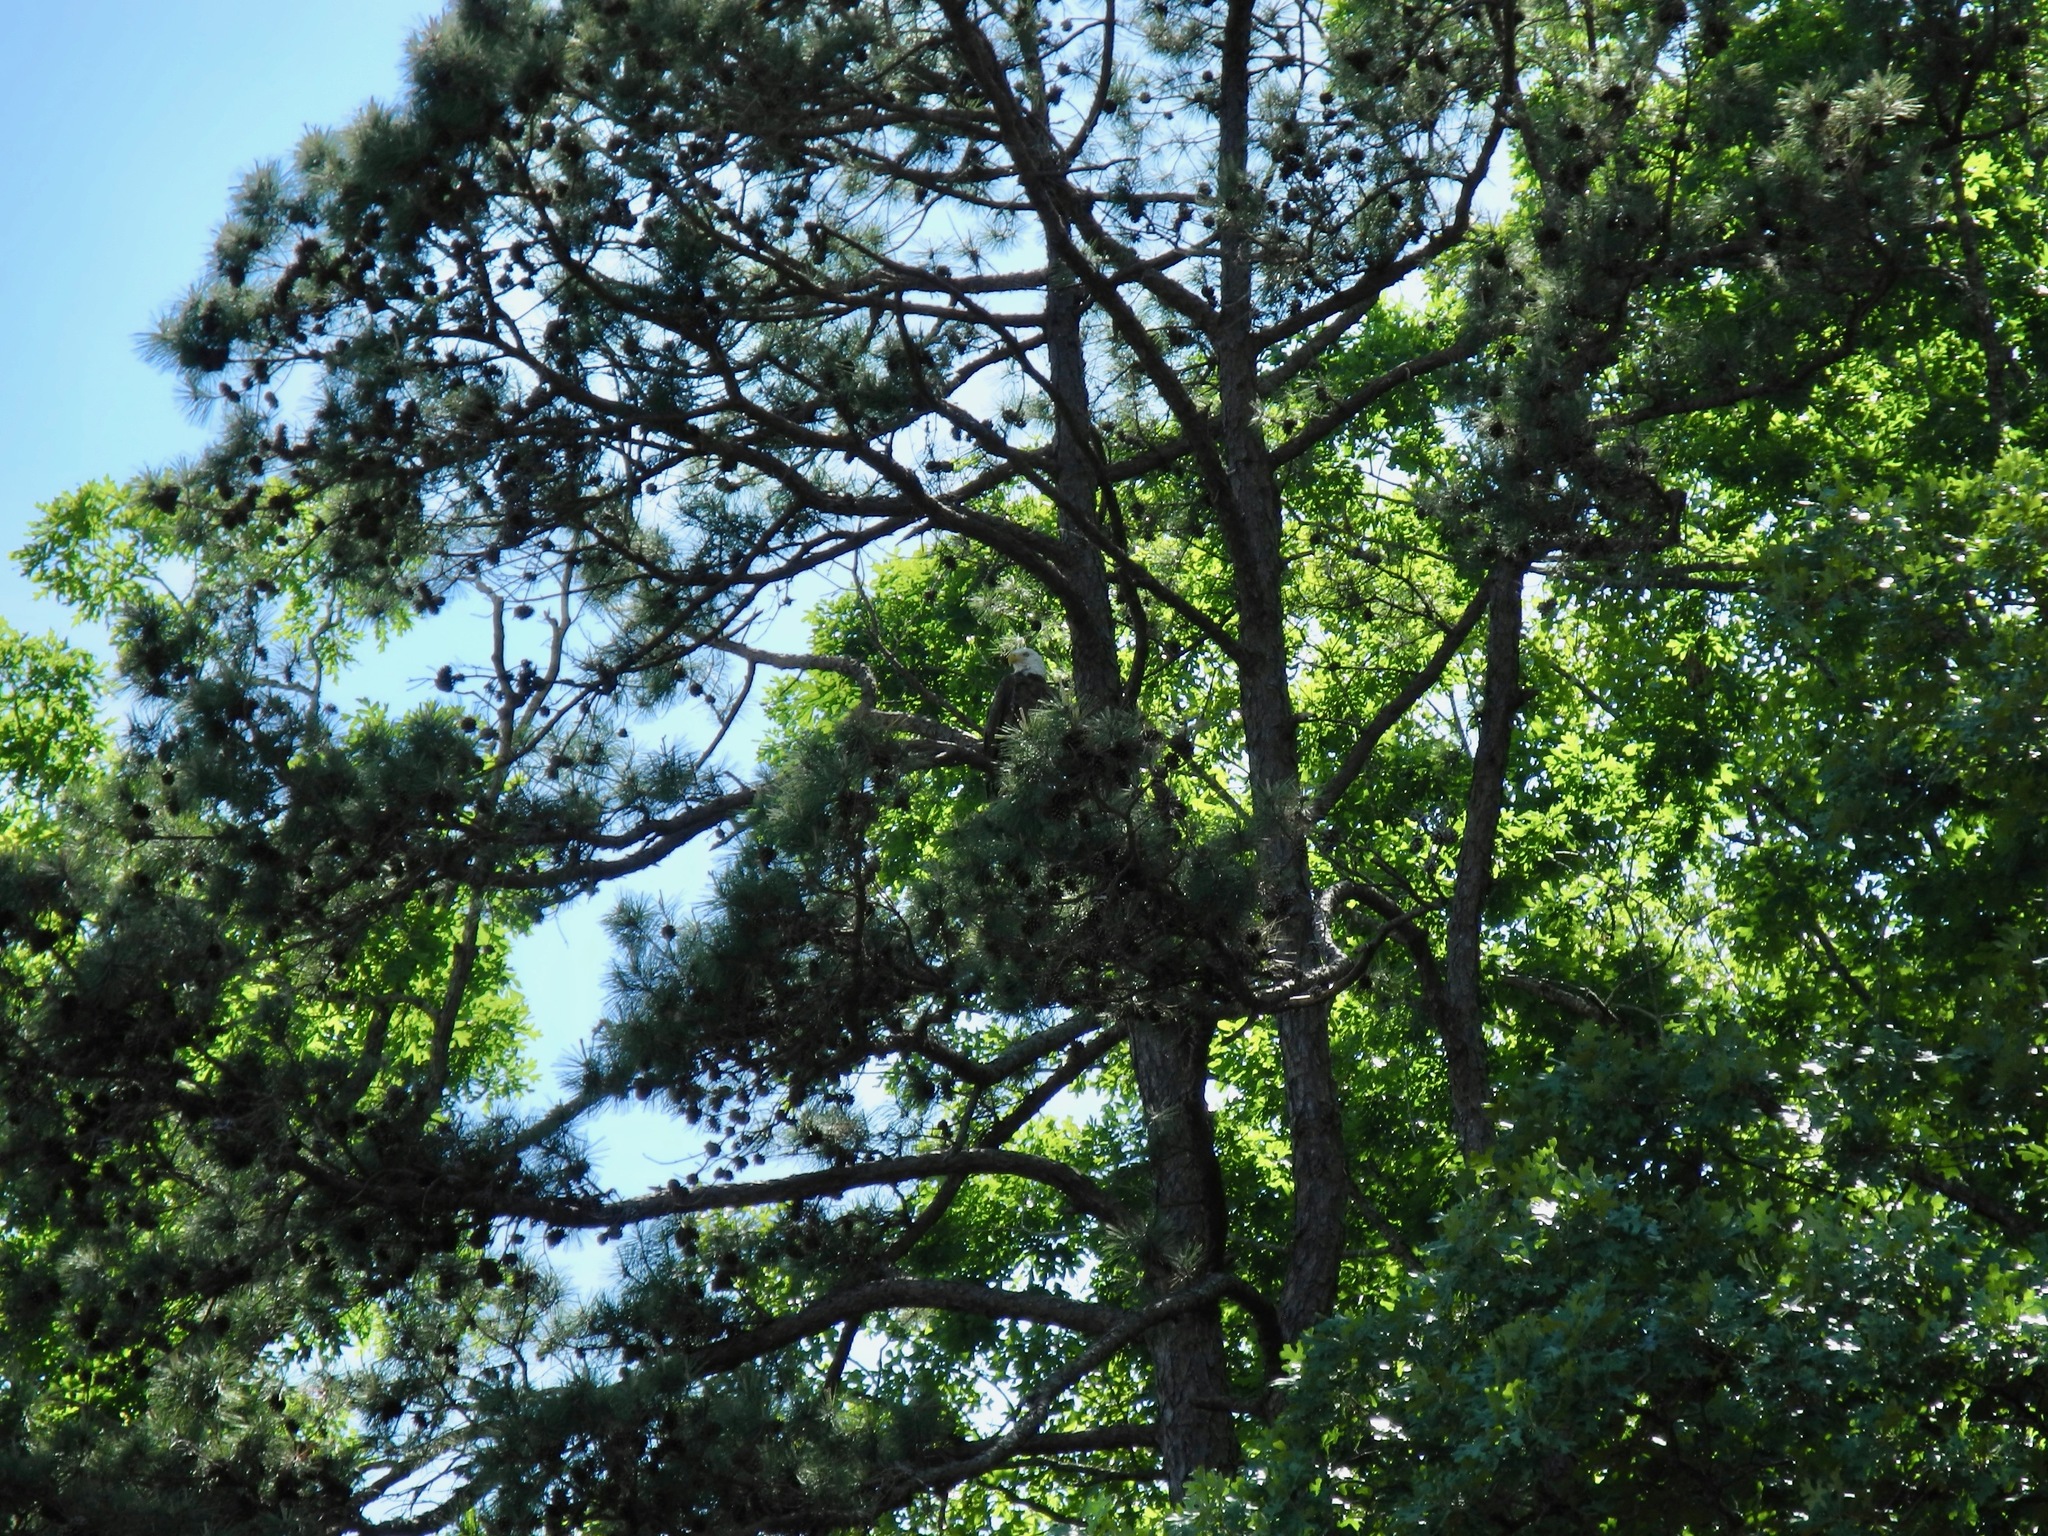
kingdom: Animalia
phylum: Chordata
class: Aves
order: Accipitriformes
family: Accipitridae
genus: Haliaeetus
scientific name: Haliaeetus leucocephalus
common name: Bald eagle
